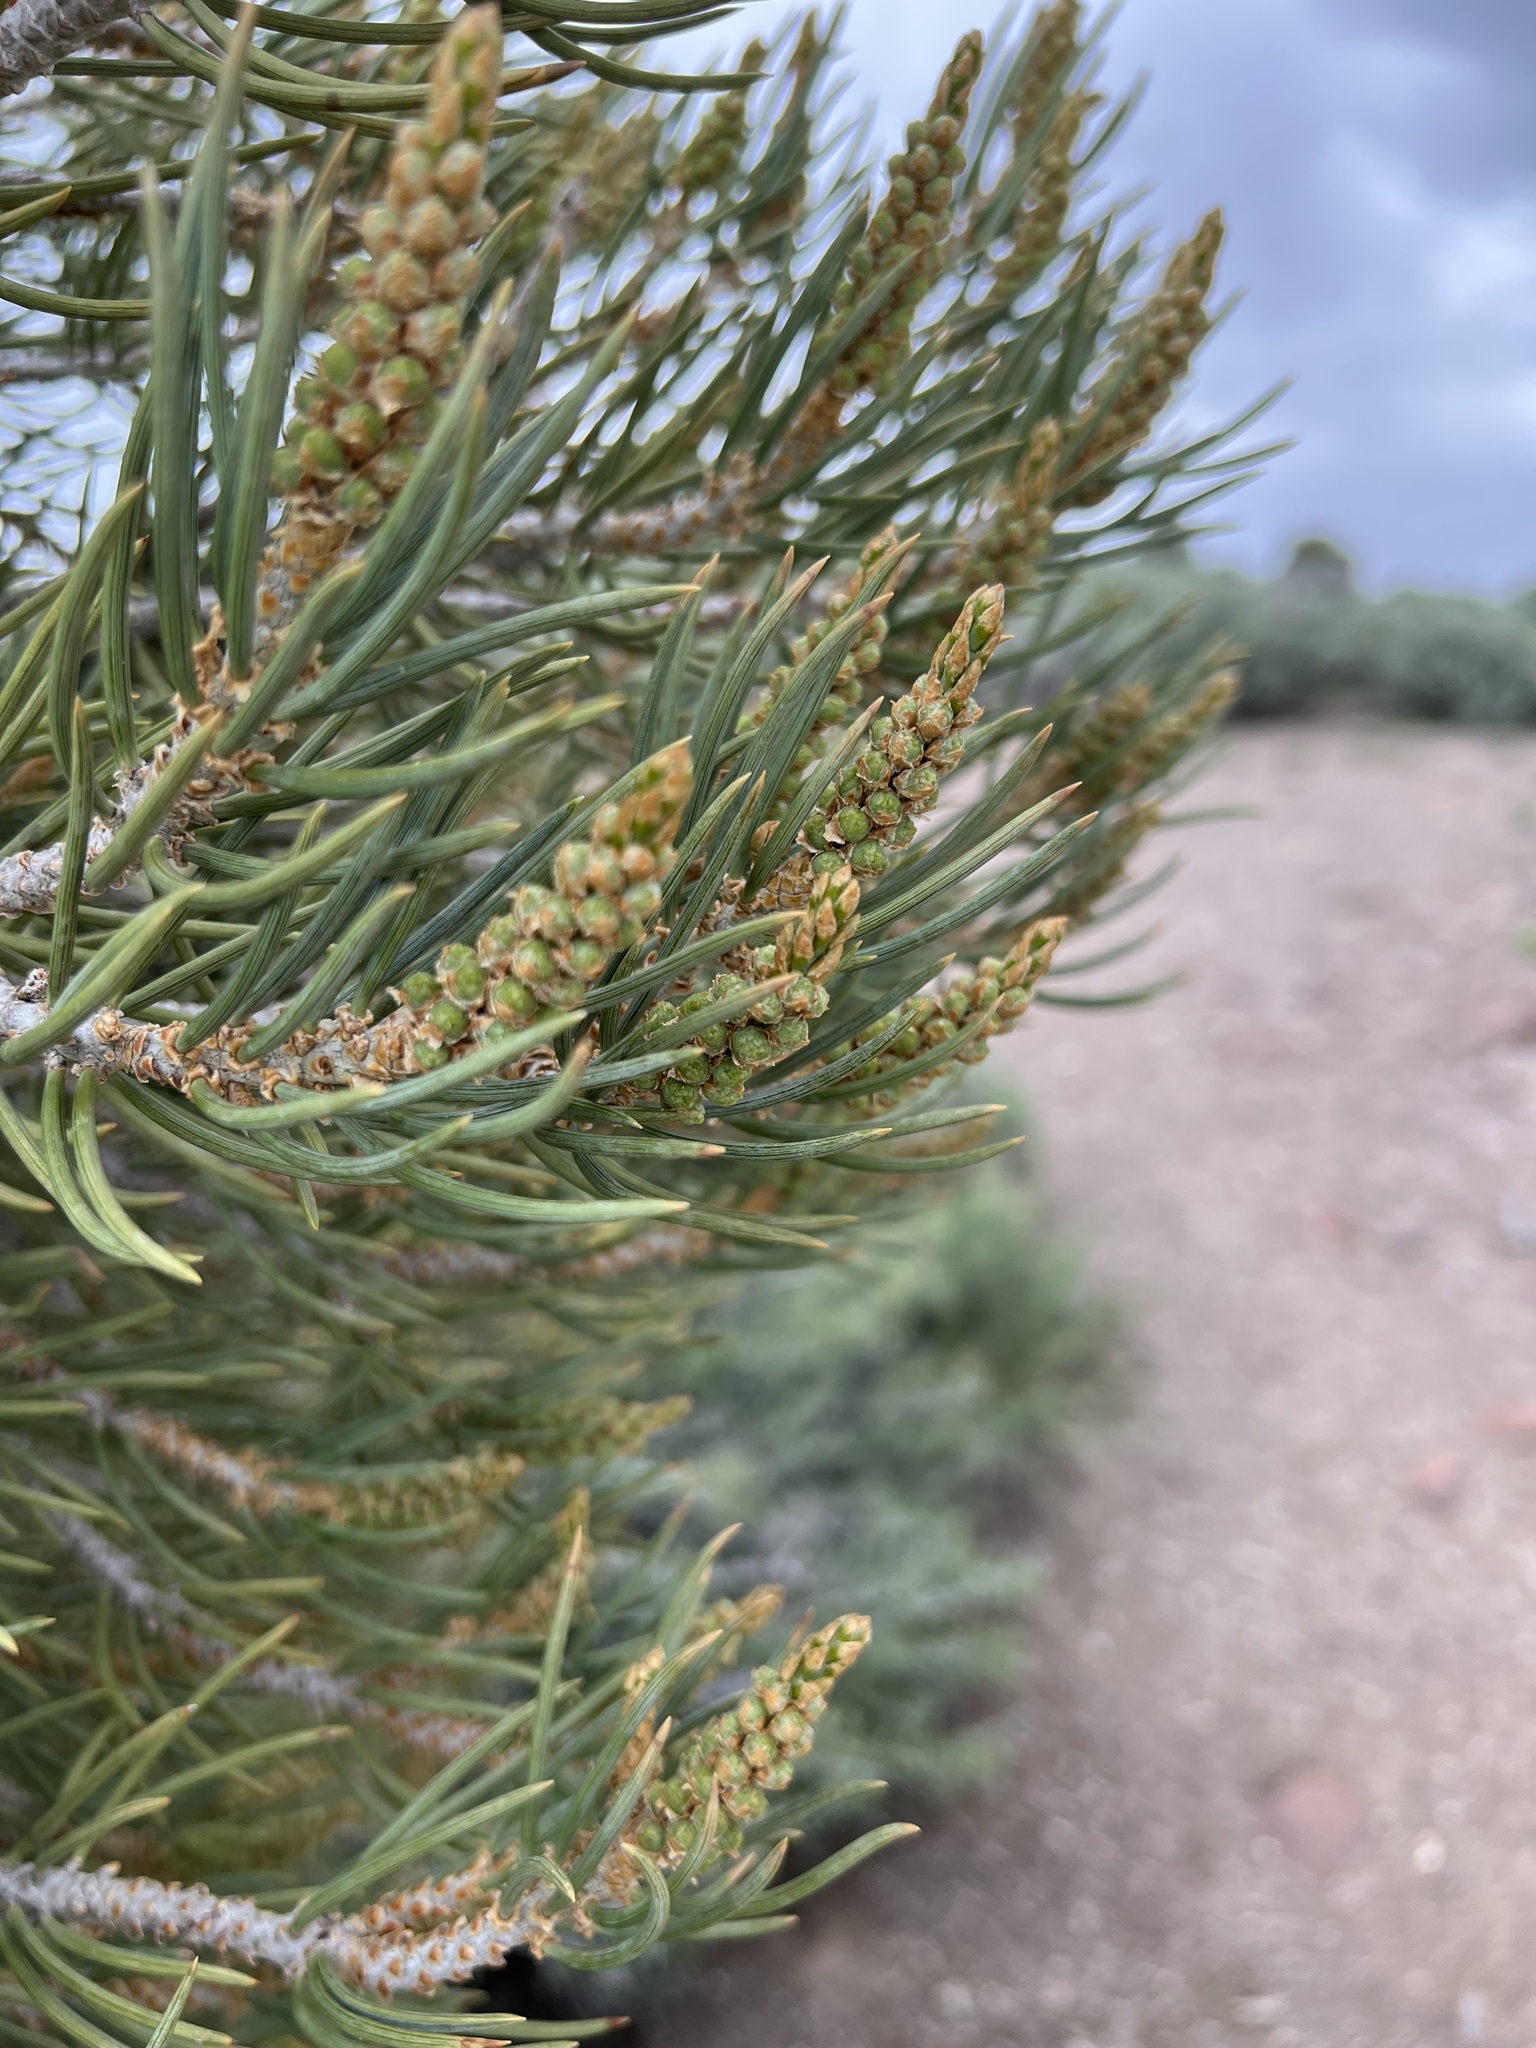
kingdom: Plantae
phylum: Tracheophyta
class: Pinopsida
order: Pinales
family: Pinaceae
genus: Pinus
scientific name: Pinus monophylla
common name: One-leaved nut pine
